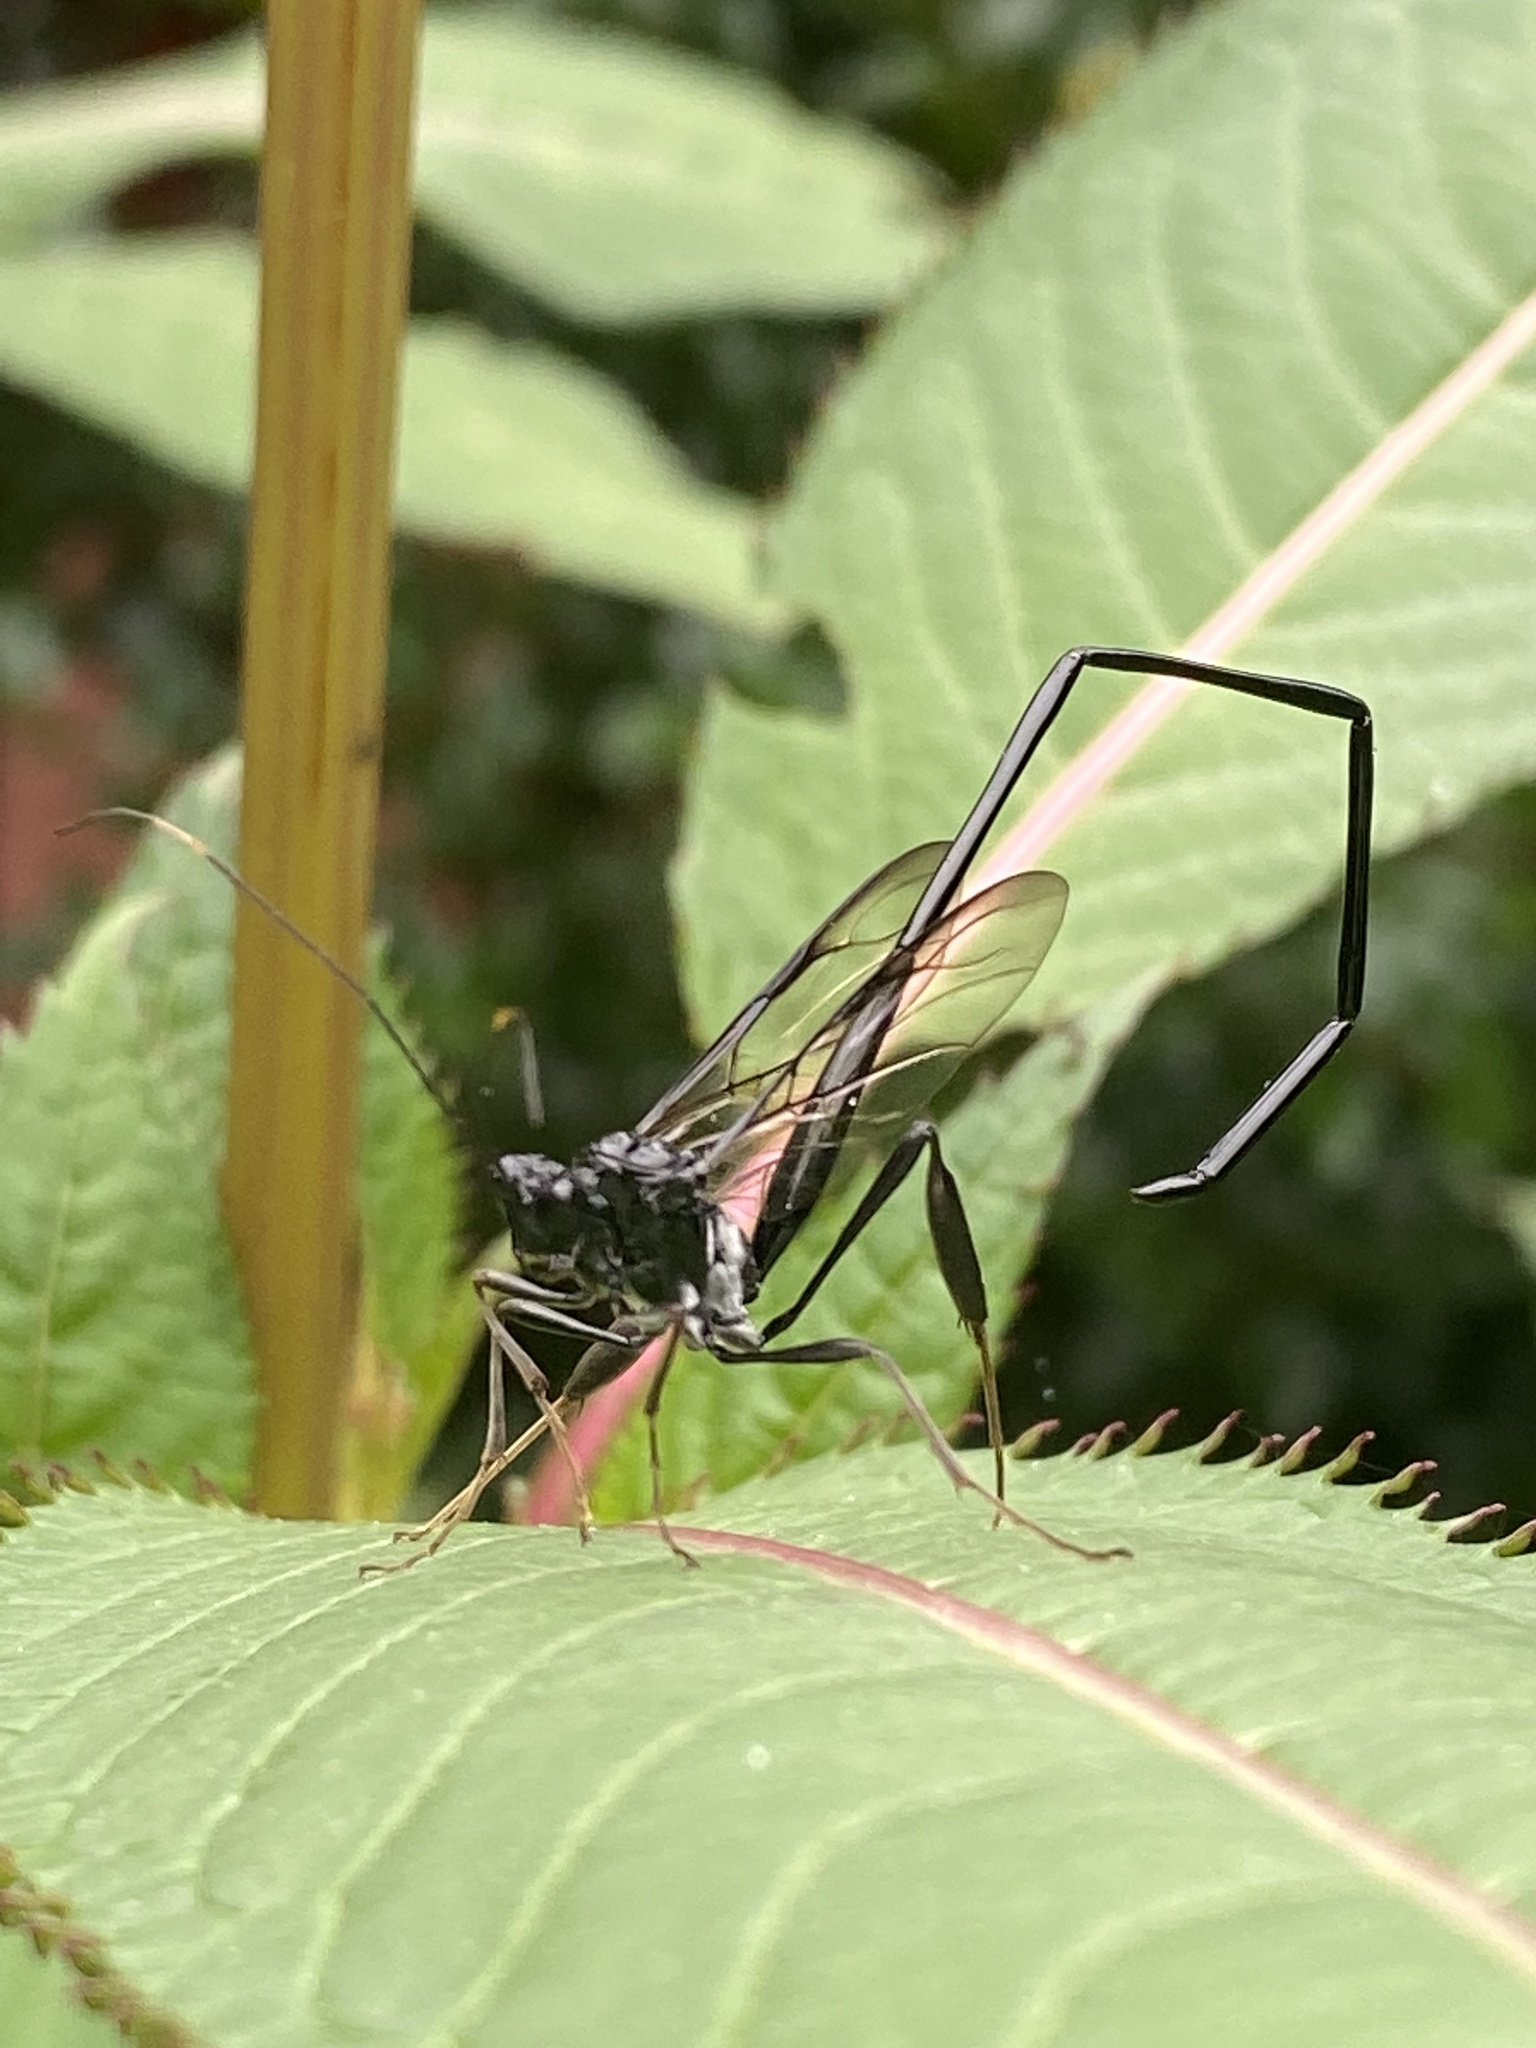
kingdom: Animalia
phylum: Arthropoda
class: Insecta
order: Hymenoptera
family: Pelecinidae
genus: Pelecinus
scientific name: Pelecinus polyturator
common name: American pelecinid wasp
